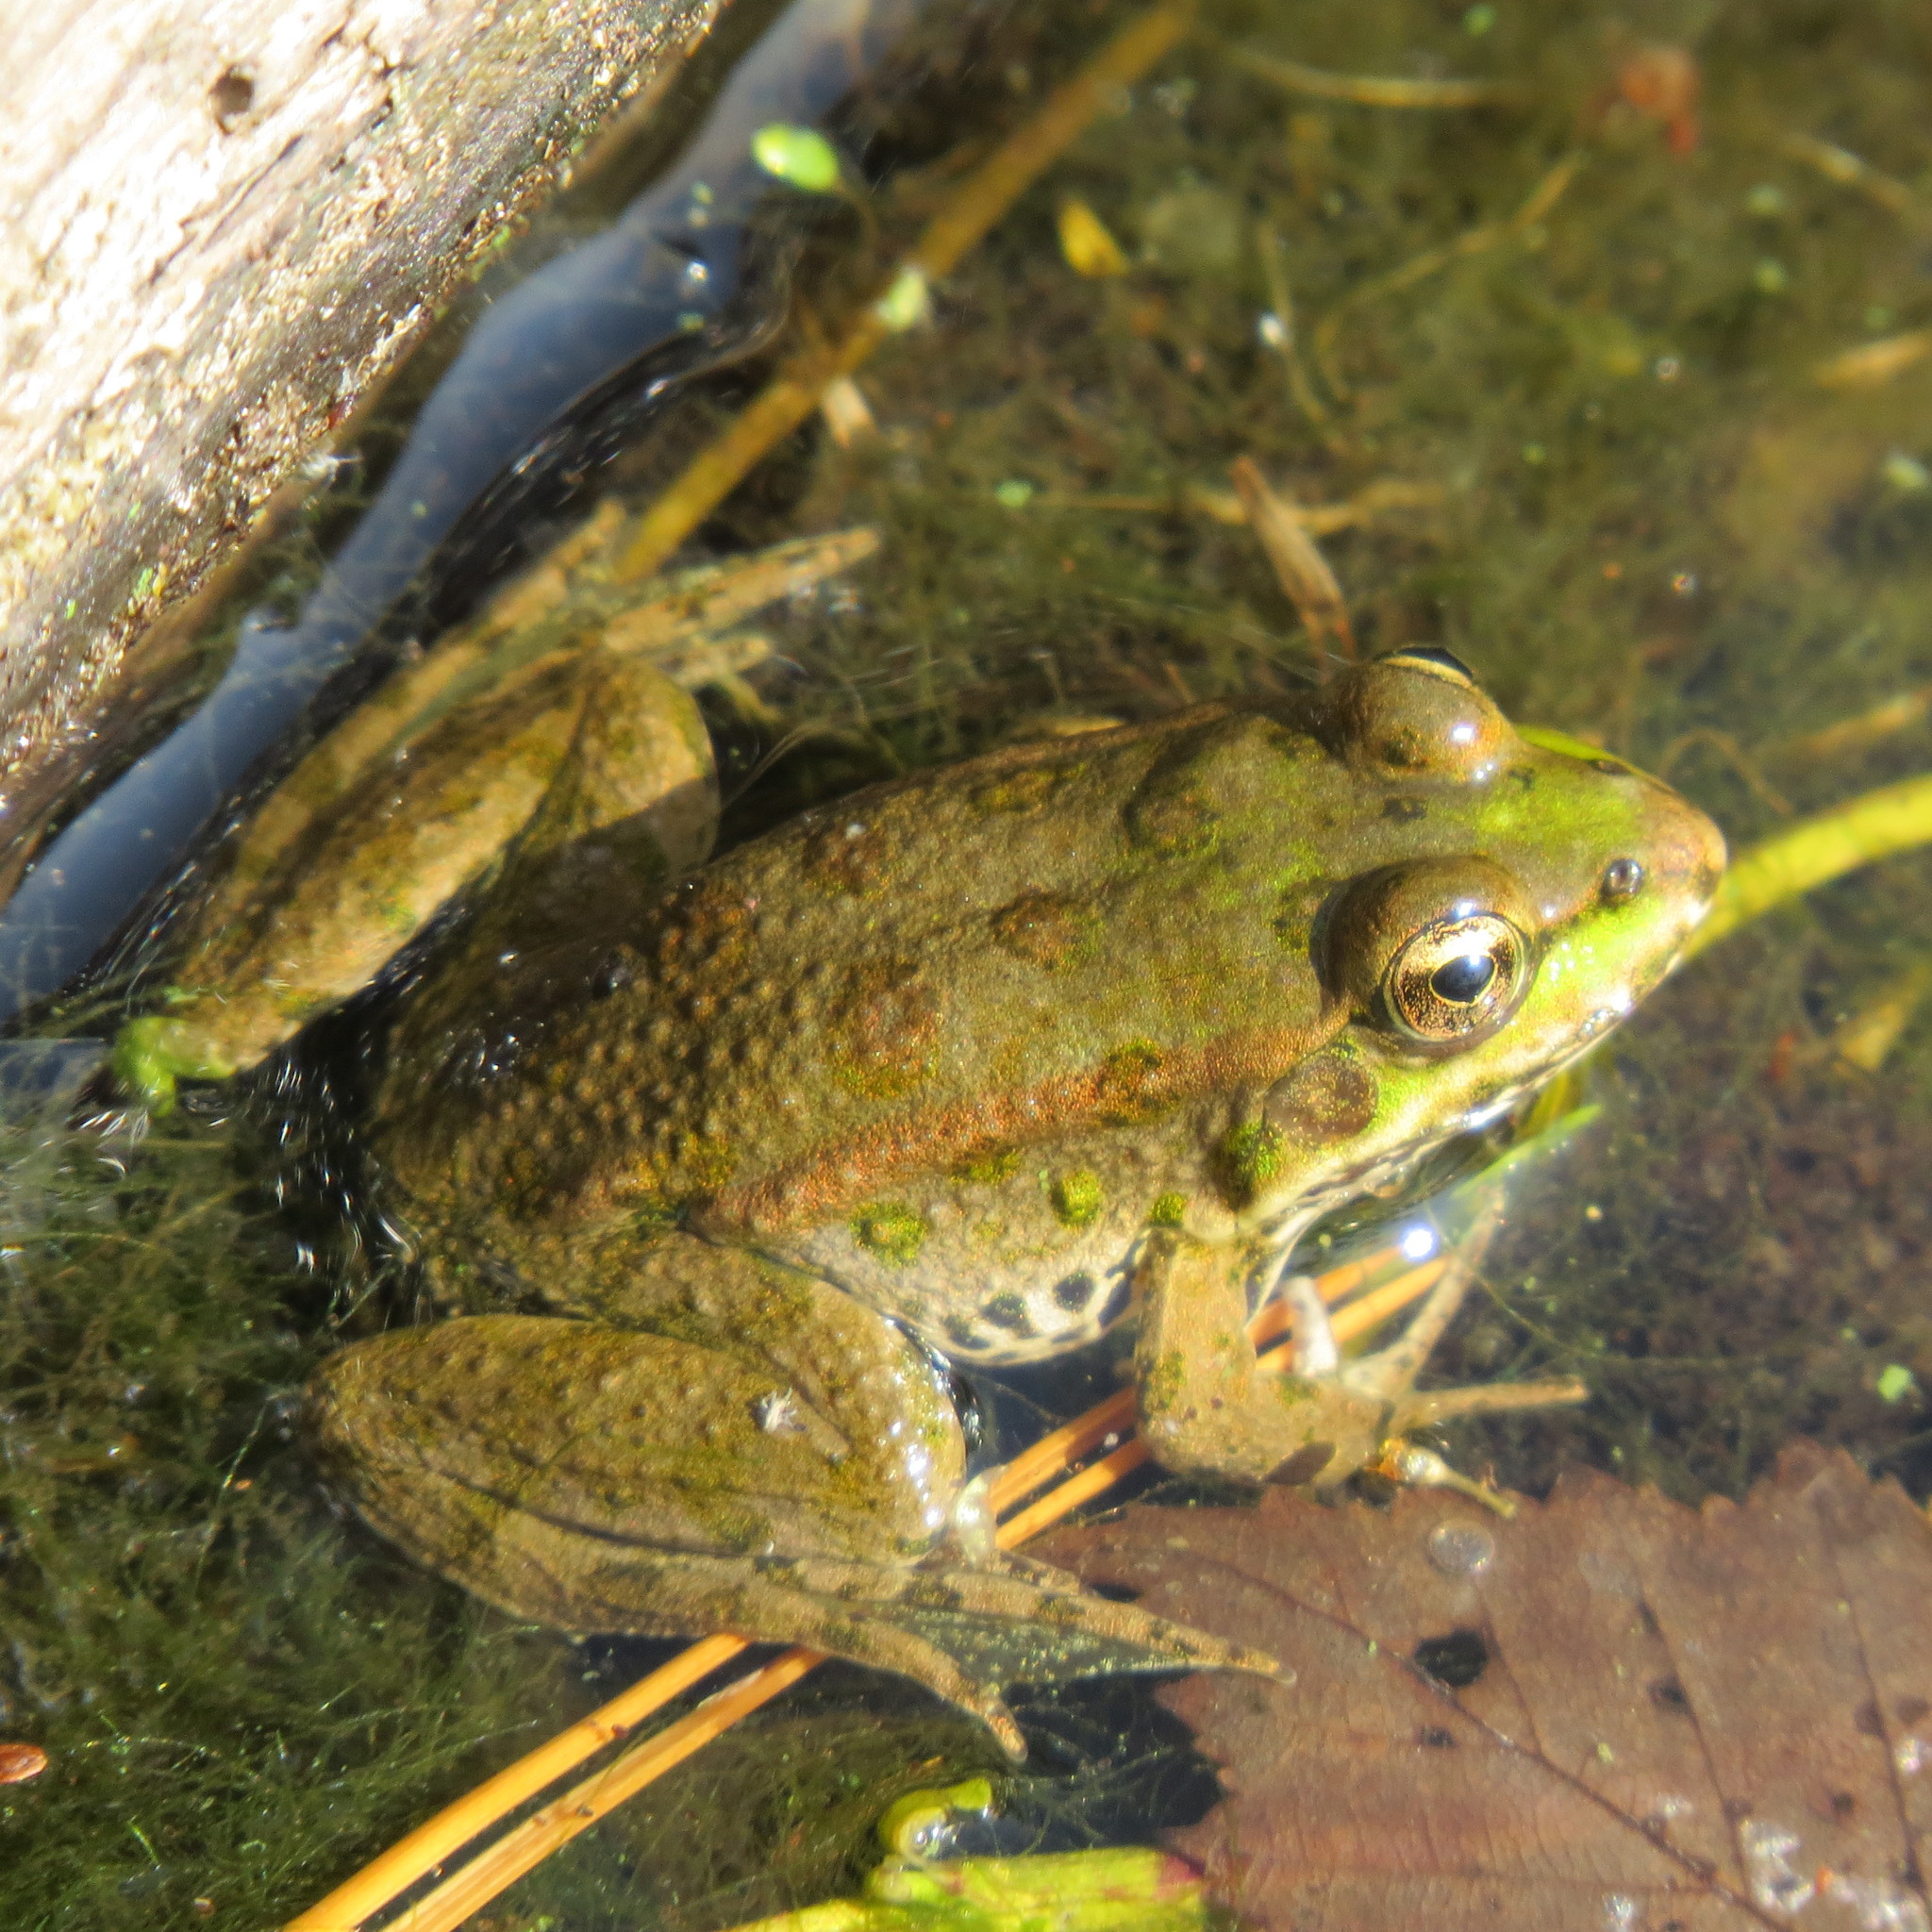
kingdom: Animalia
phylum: Chordata
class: Amphibia
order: Anura
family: Ranidae
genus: Pelophylax
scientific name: Pelophylax ridibundus
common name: Marsh frog
